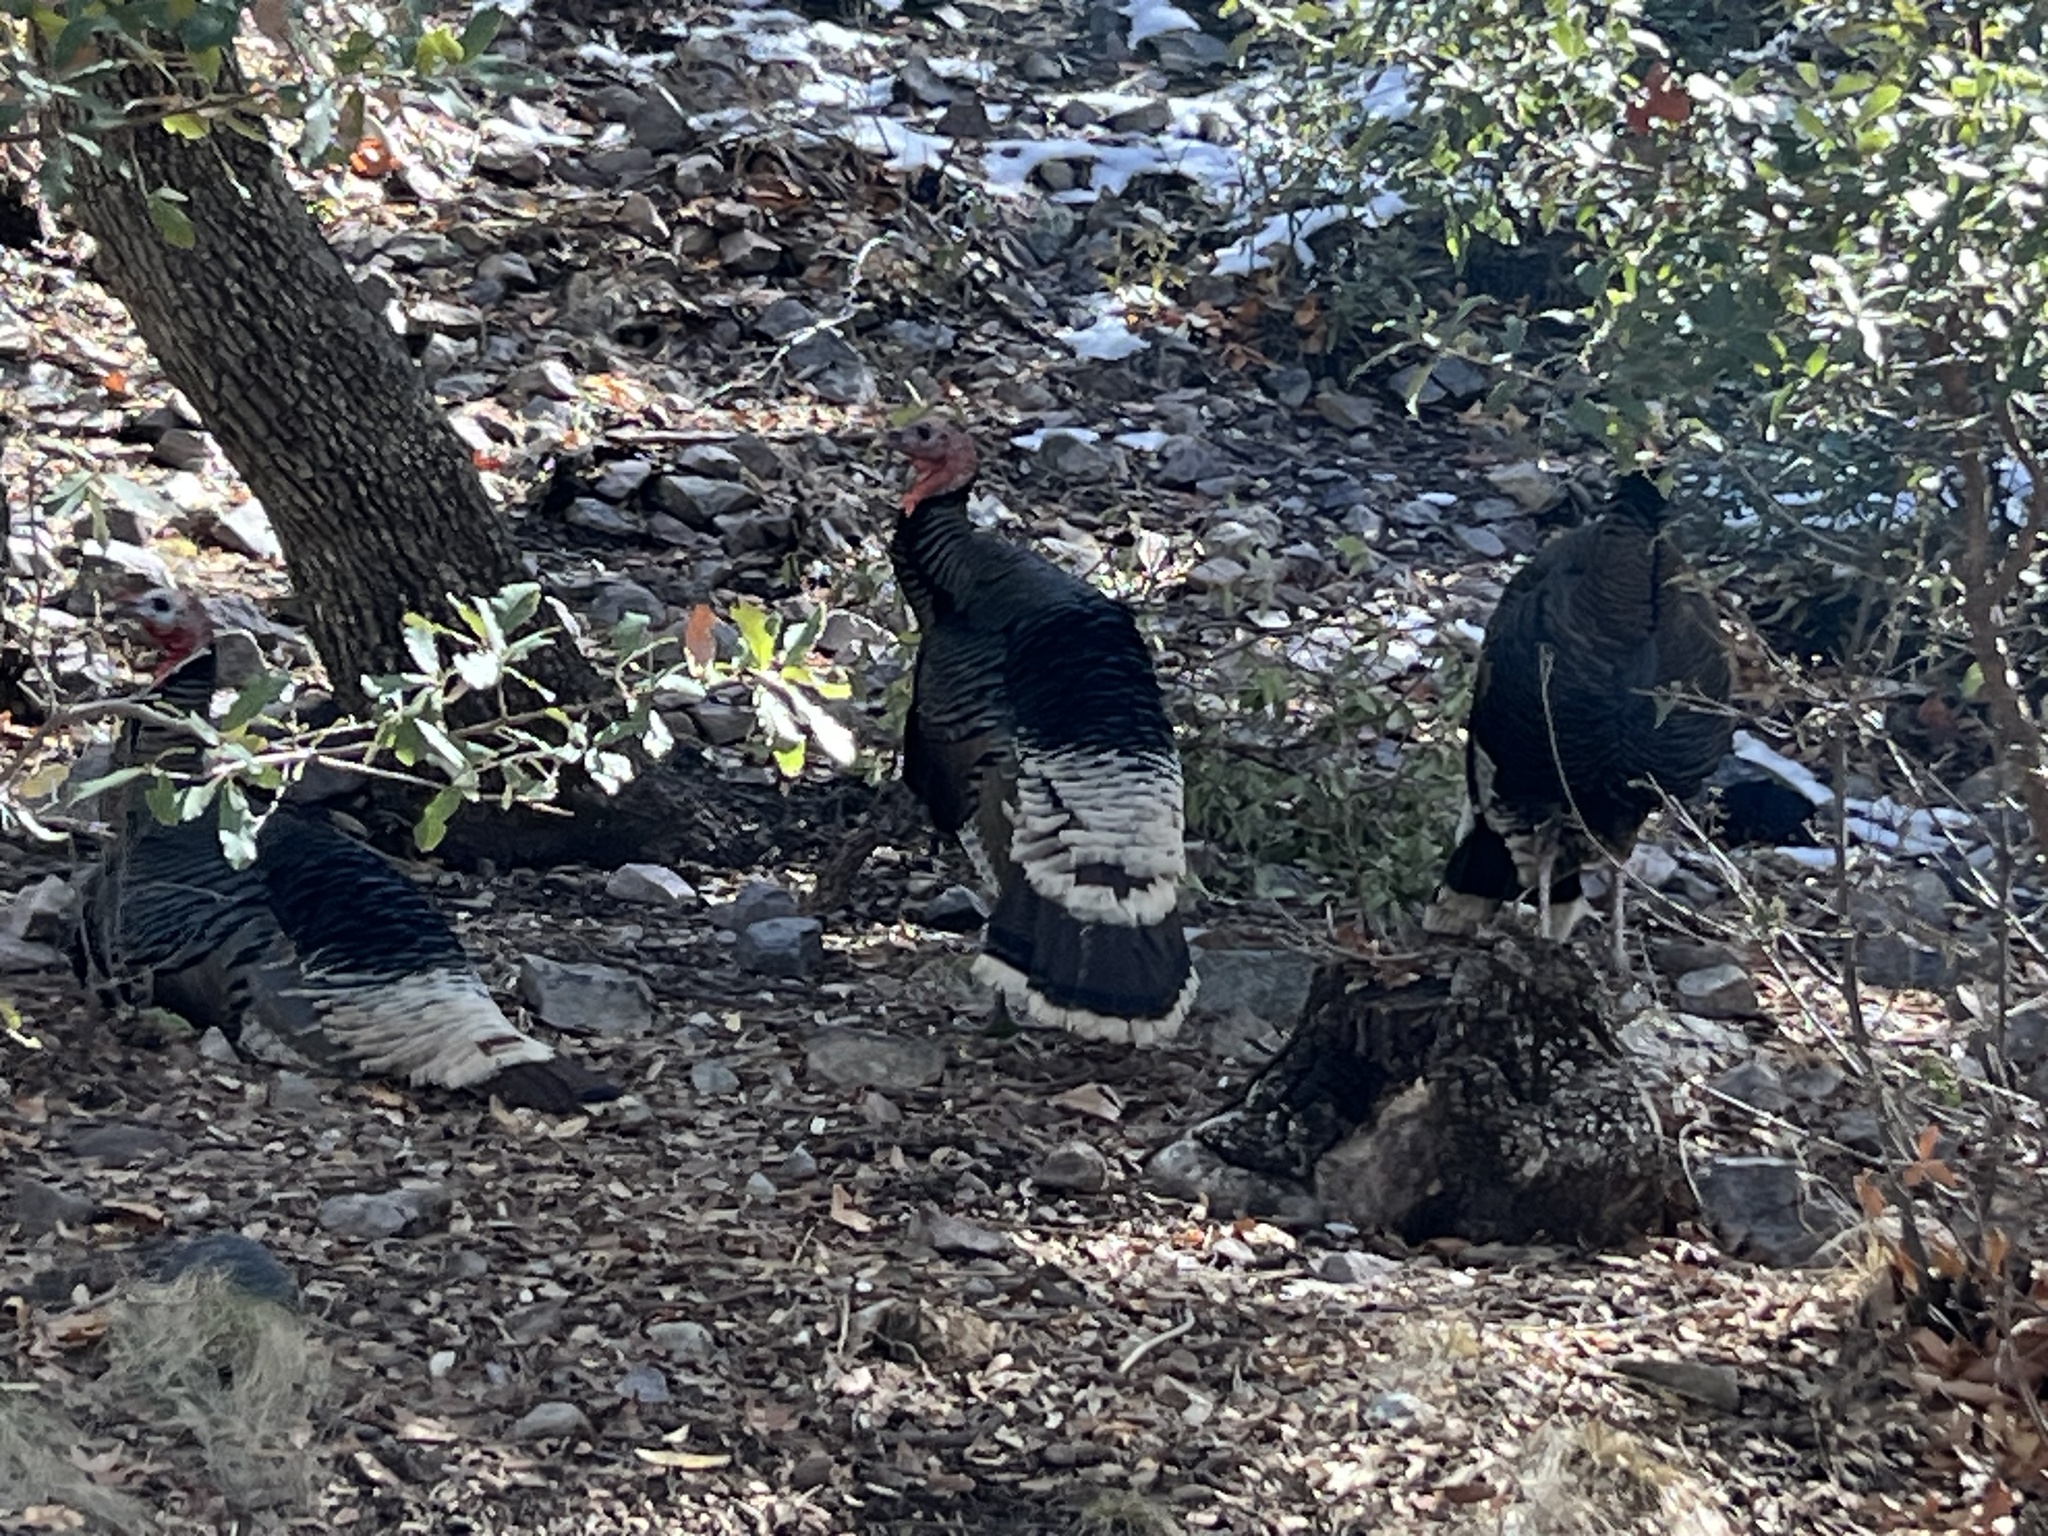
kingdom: Animalia
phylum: Chordata
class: Aves
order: Galliformes
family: Phasianidae
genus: Meleagris
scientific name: Meleagris gallopavo
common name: Wild turkey
